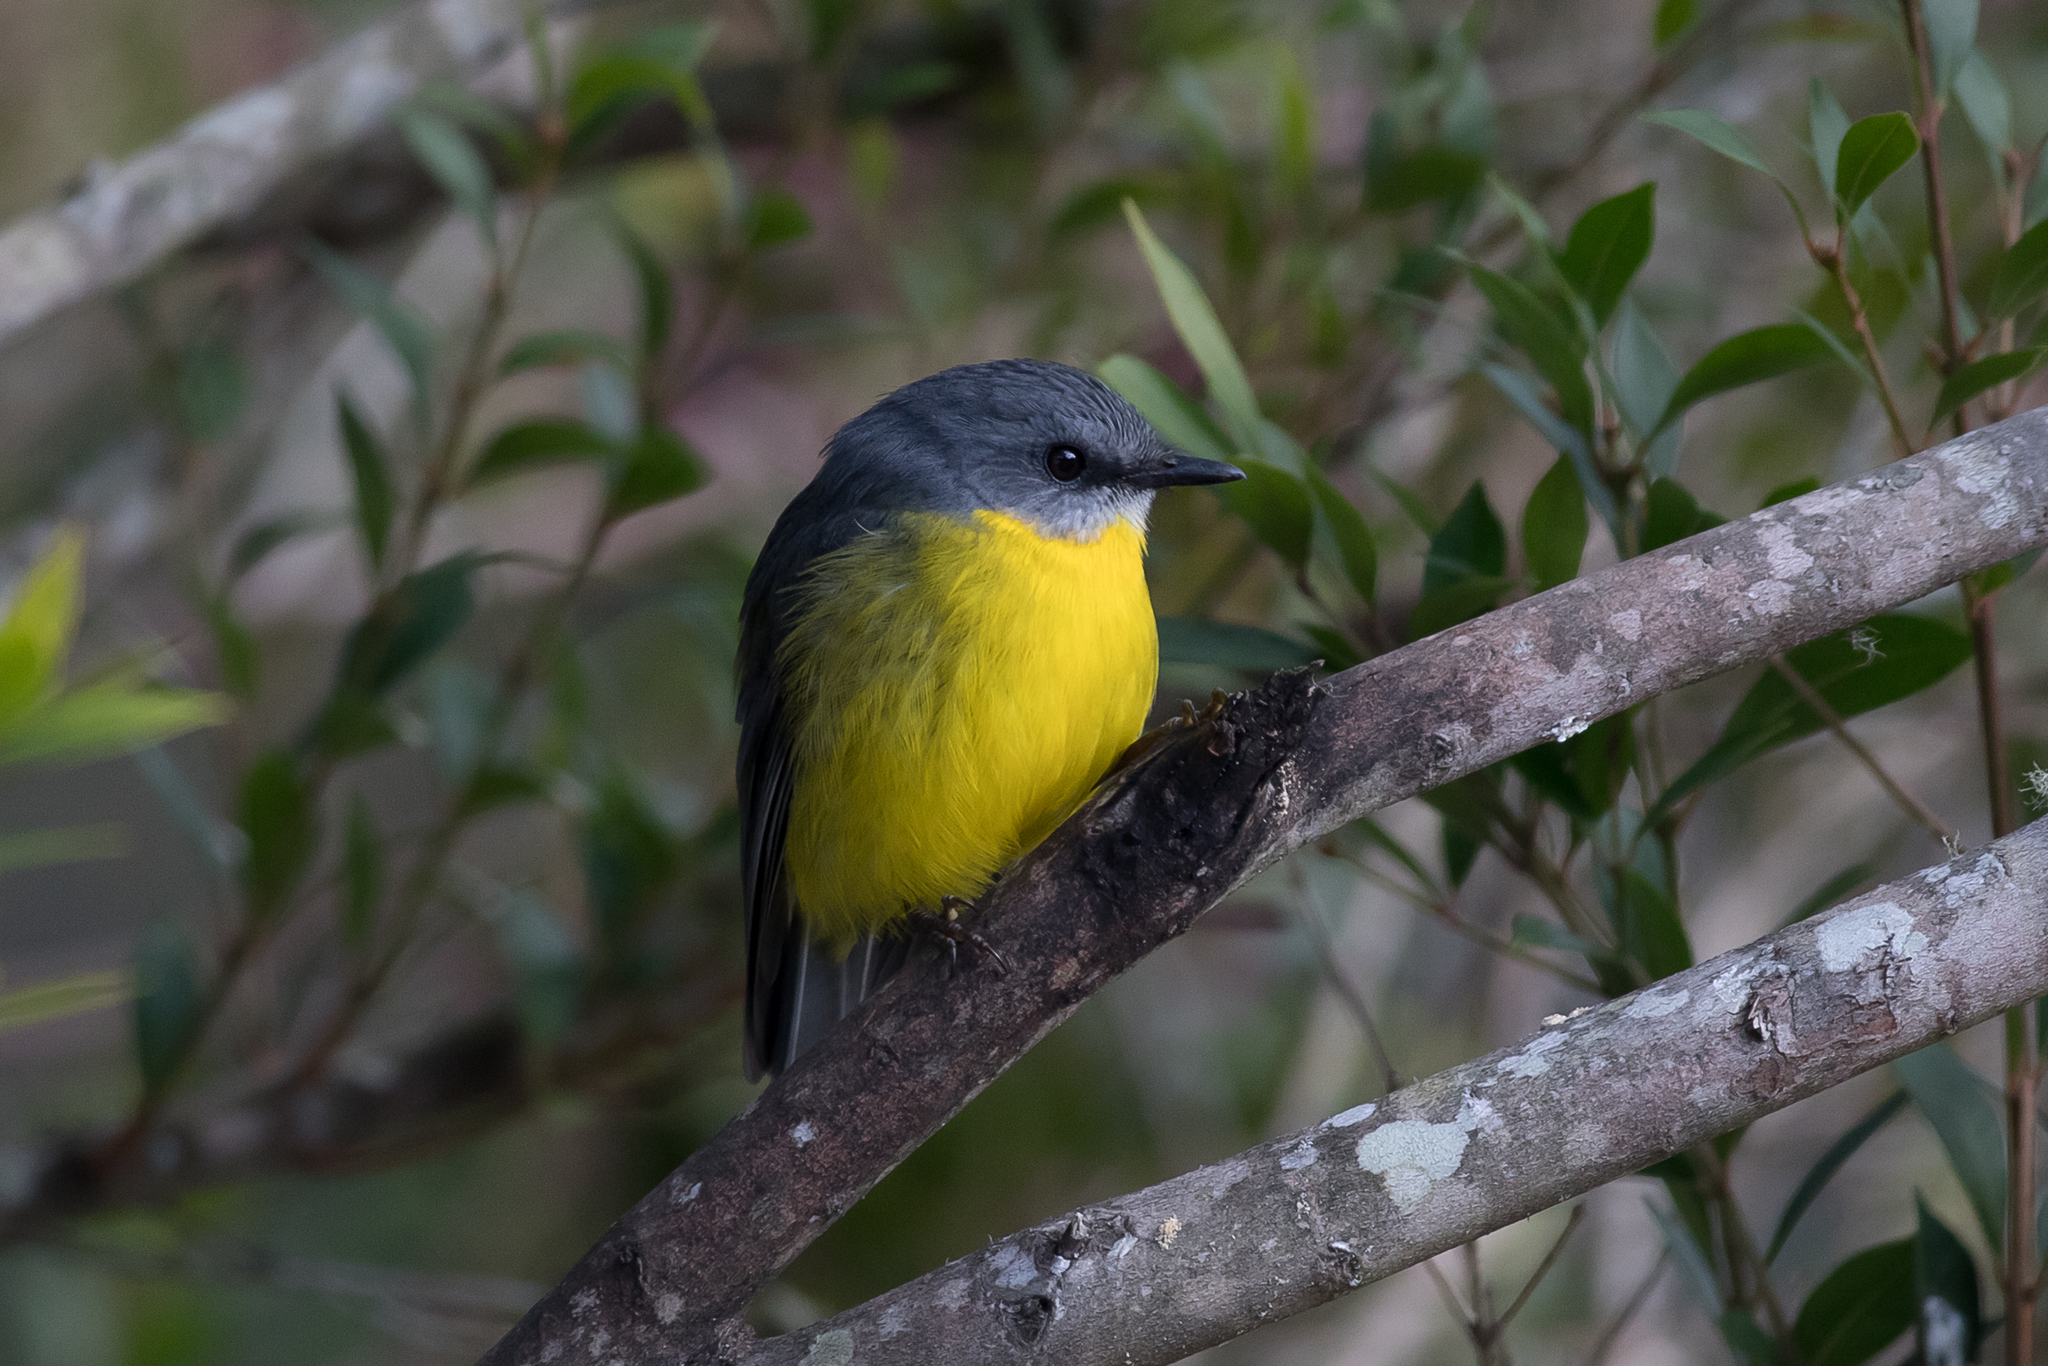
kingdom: Animalia
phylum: Chordata
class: Aves
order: Passeriformes
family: Petroicidae
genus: Eopsaltria
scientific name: Eopsaltria australis
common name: Eastern yellow robin
